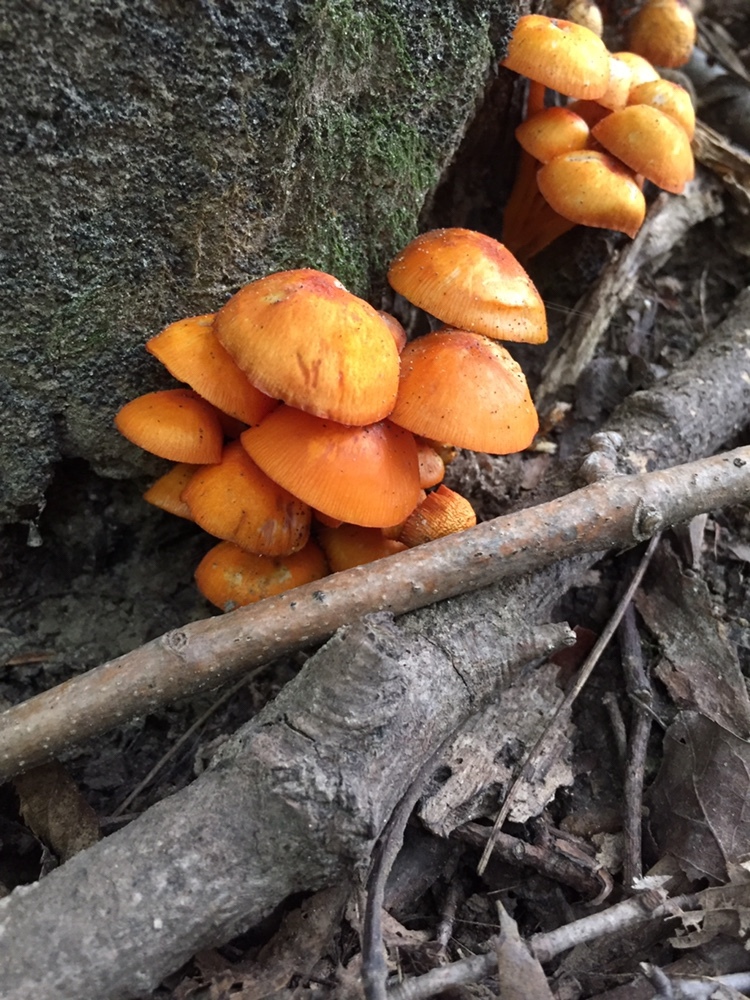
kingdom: Fungi
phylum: Basidiomycota
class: Agaricomycetes
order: Agaricales
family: Mycenaceae
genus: Mycena
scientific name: Mycena leaiana
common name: Orange mycena
